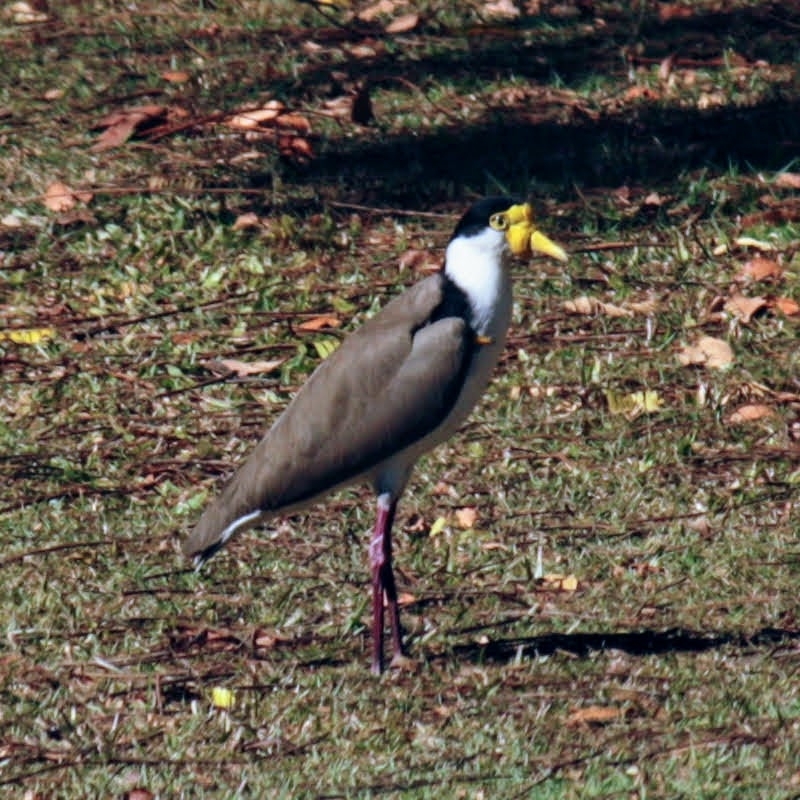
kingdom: Animalia
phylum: Chordata
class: Aves
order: Charadriiformes
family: Charadriidae
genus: Vanellus
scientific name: Vanellus miles
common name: Masked lapwing
